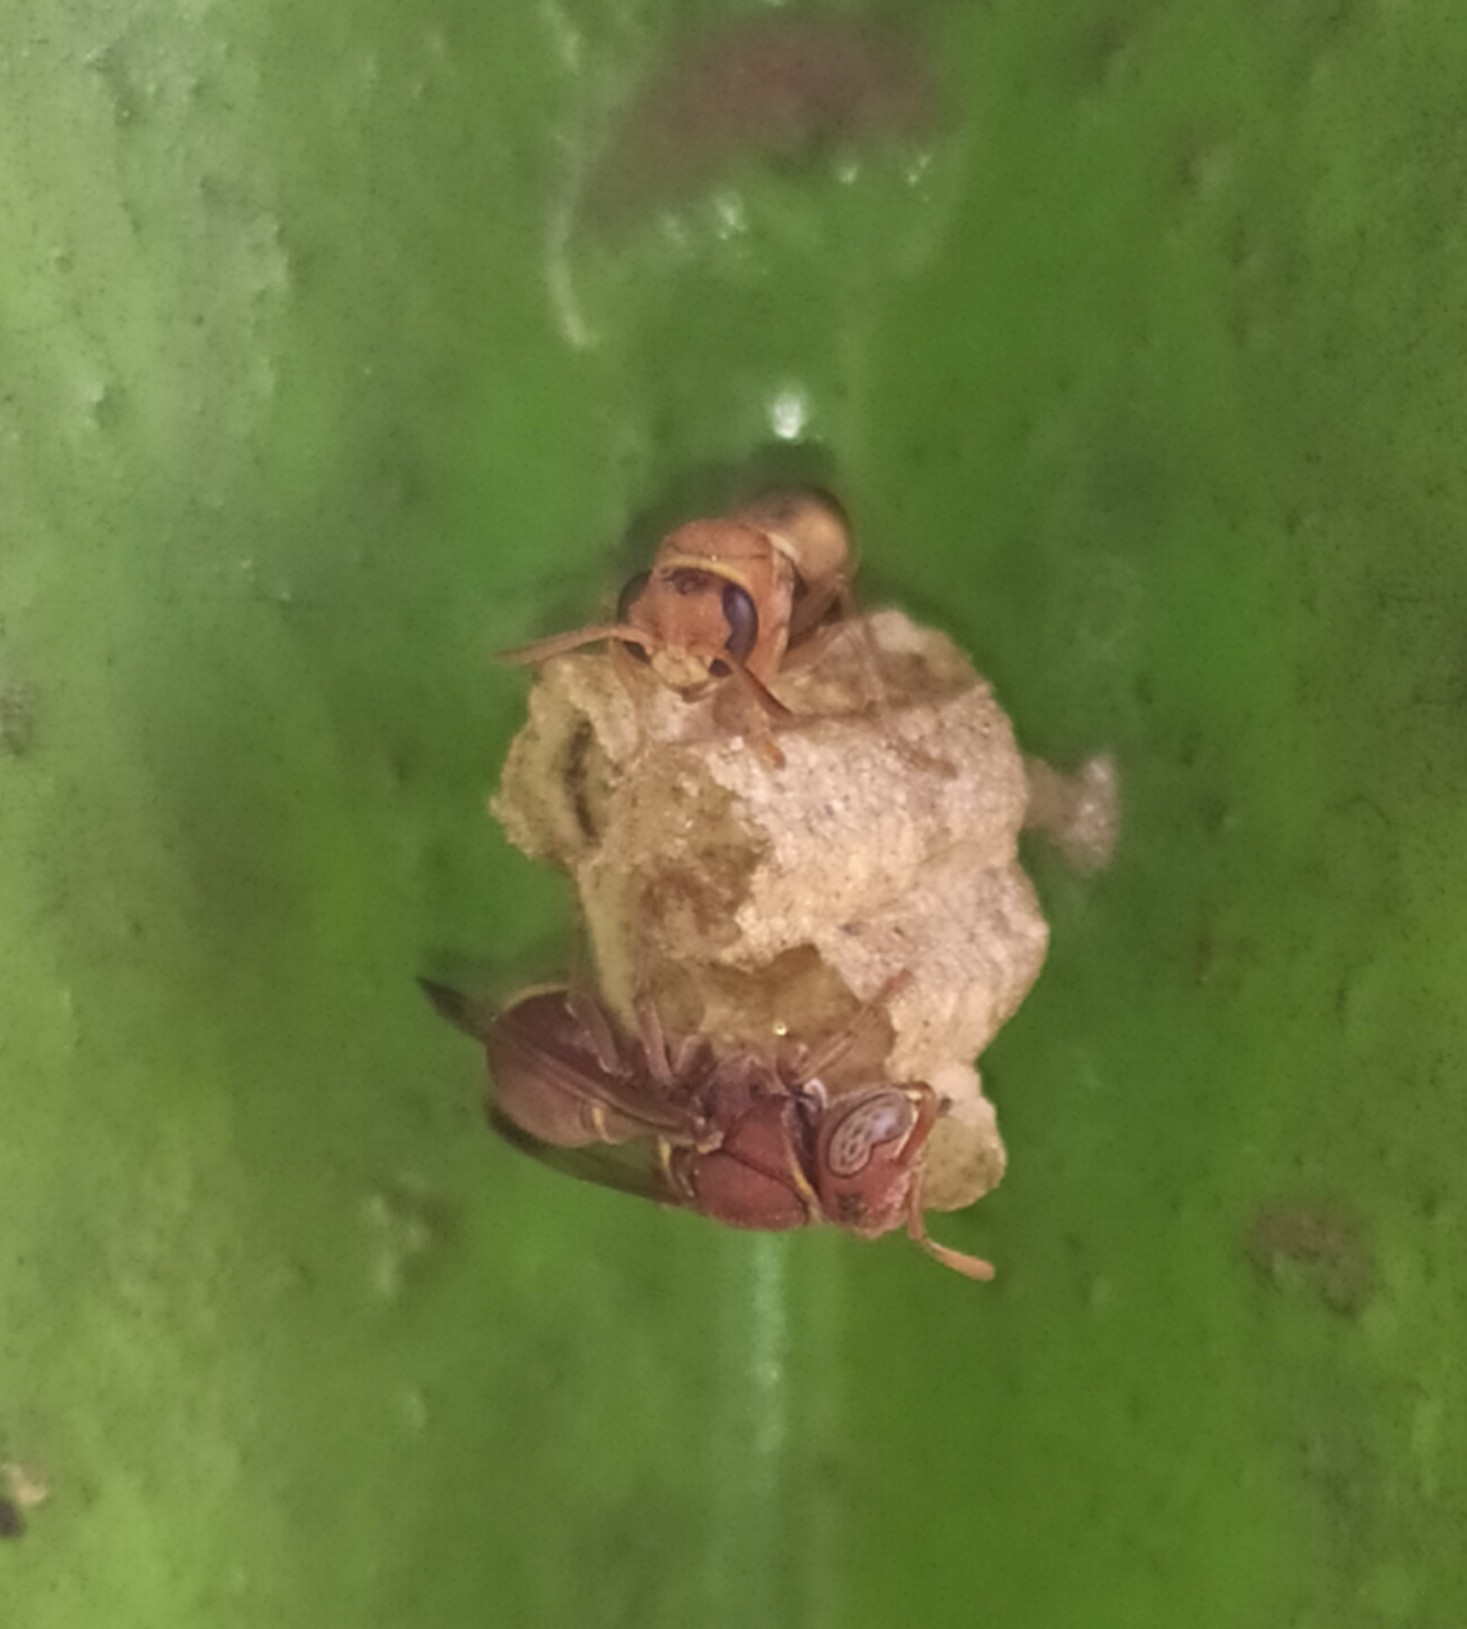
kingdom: Animalia
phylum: Arthropoda
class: Insecta
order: Hymenoptera
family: Vespidae
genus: Ropalidia
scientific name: Ropalidia marginata
